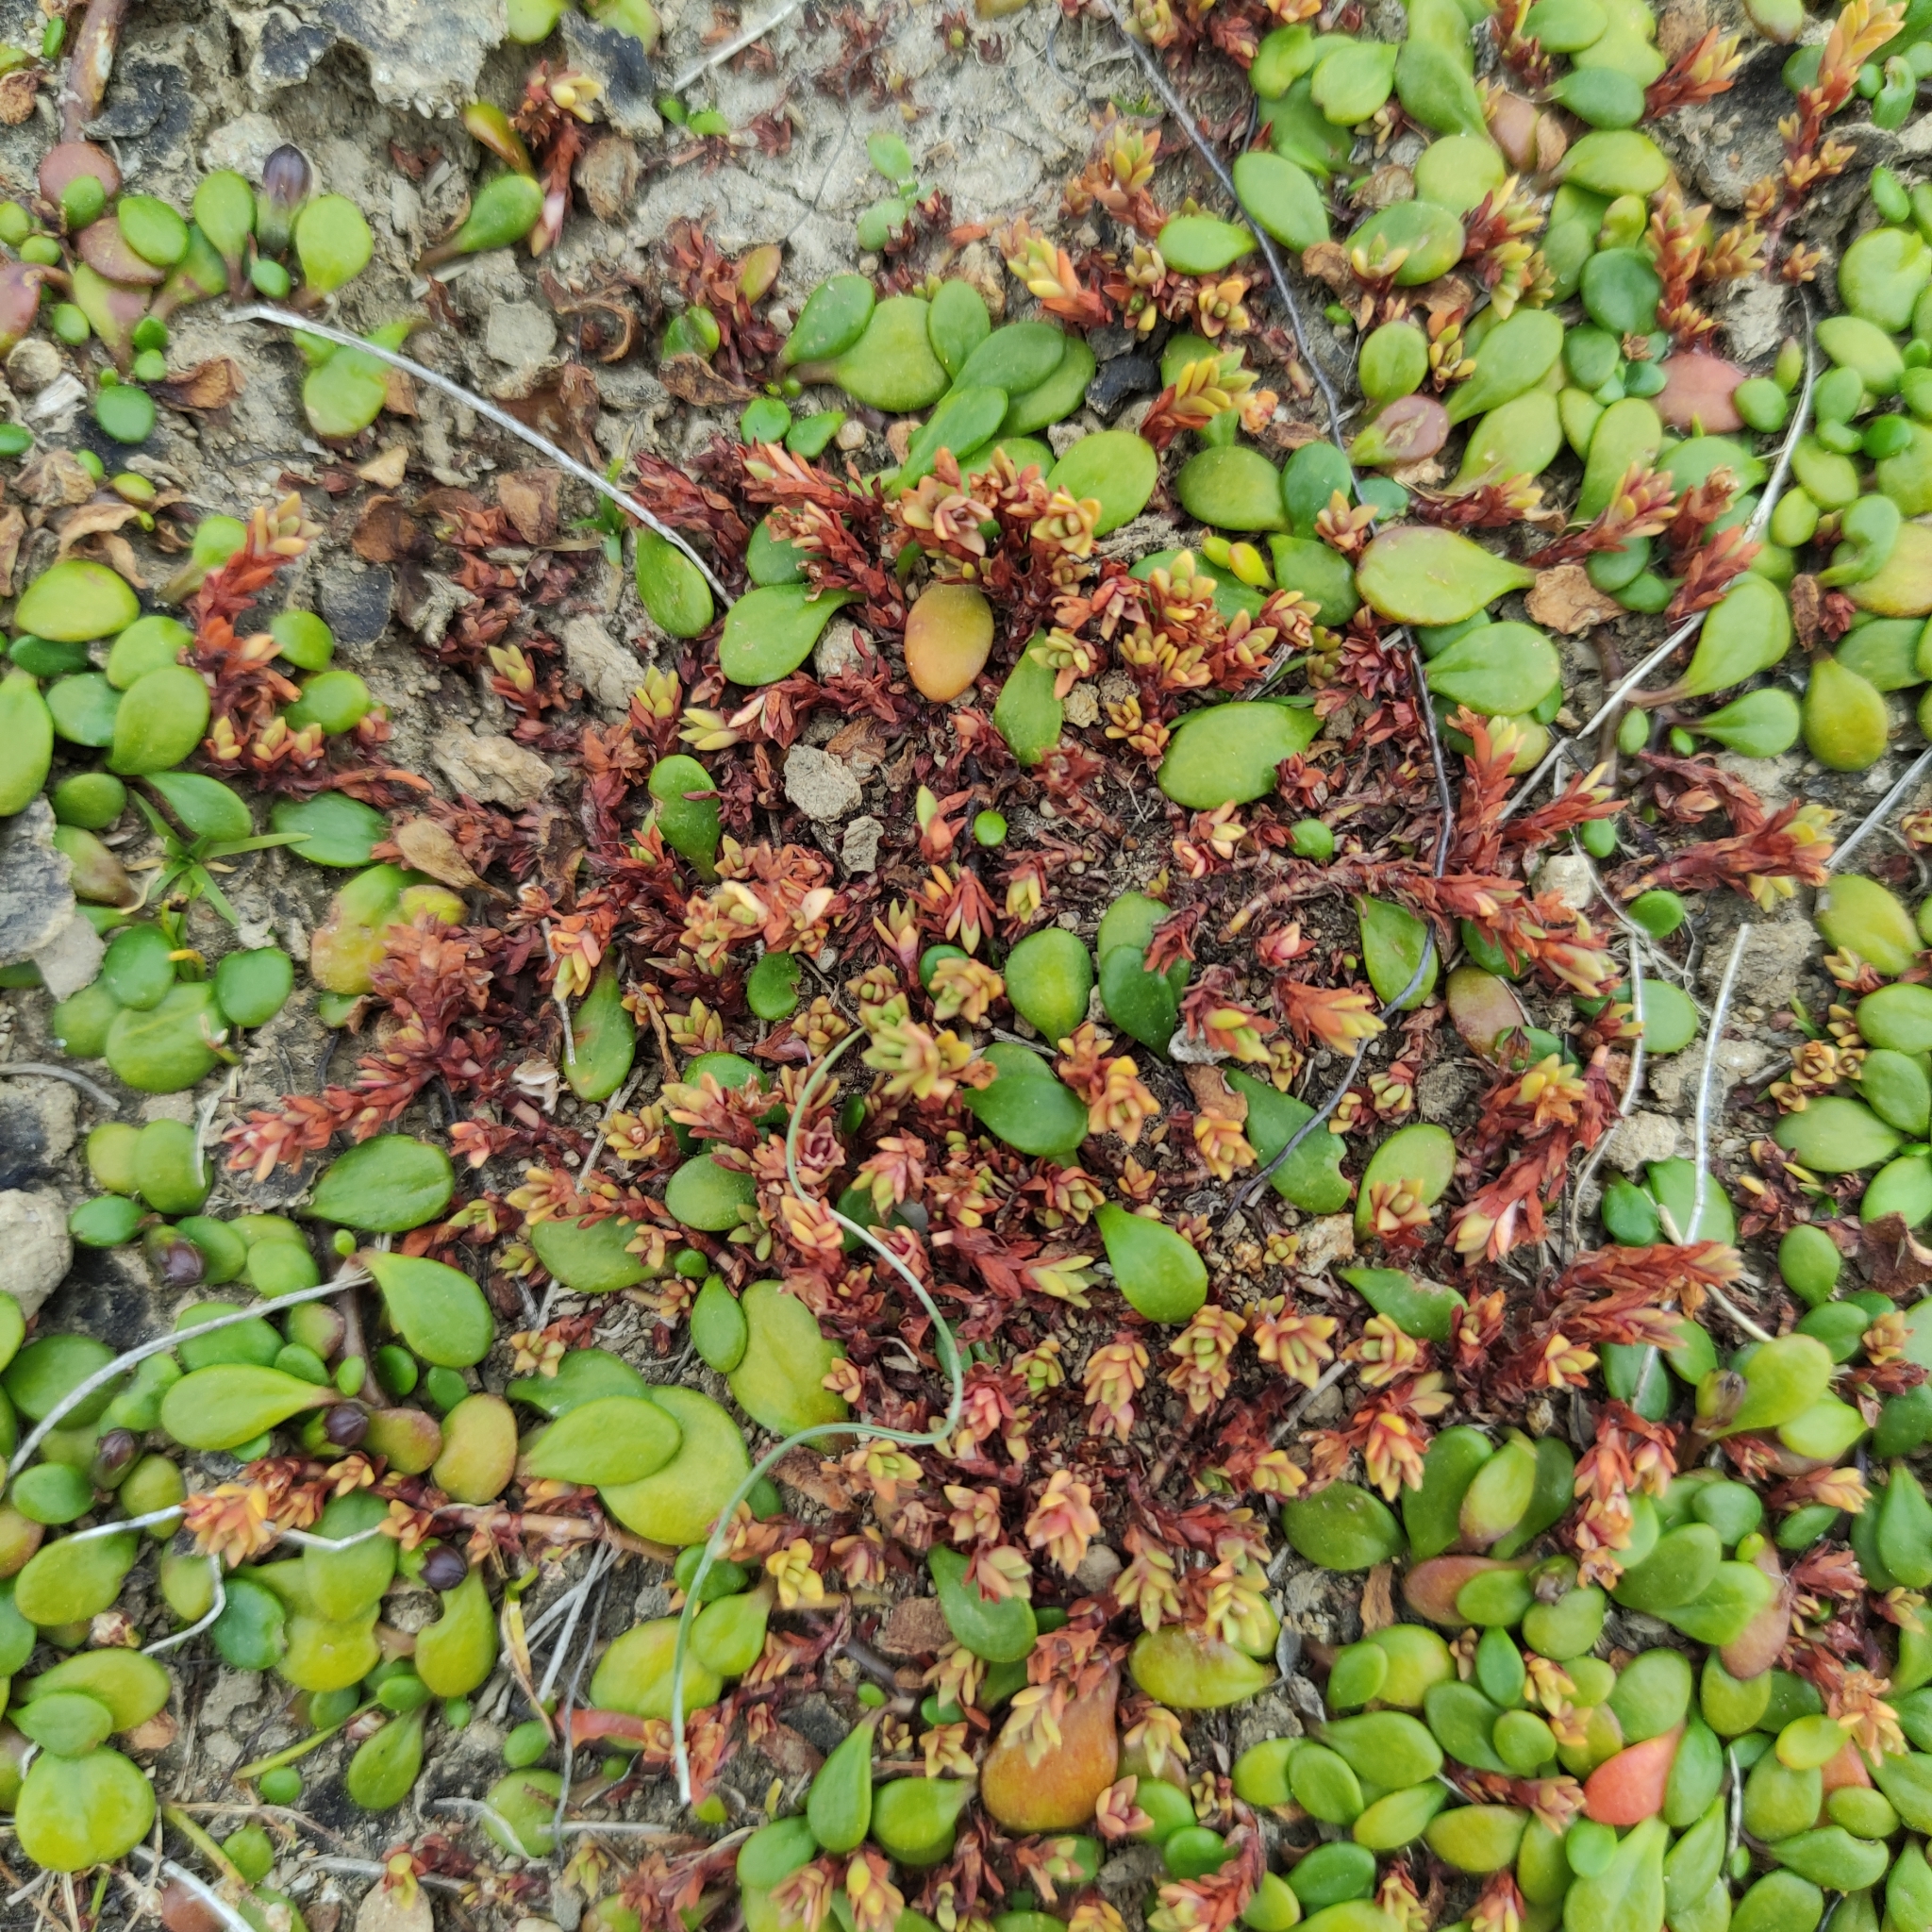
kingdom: Plantae
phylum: Tracheophyta
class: Magnoliopsida
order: Saxifragales
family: Crassulaceae
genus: Crassula
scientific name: Crassula moschata
